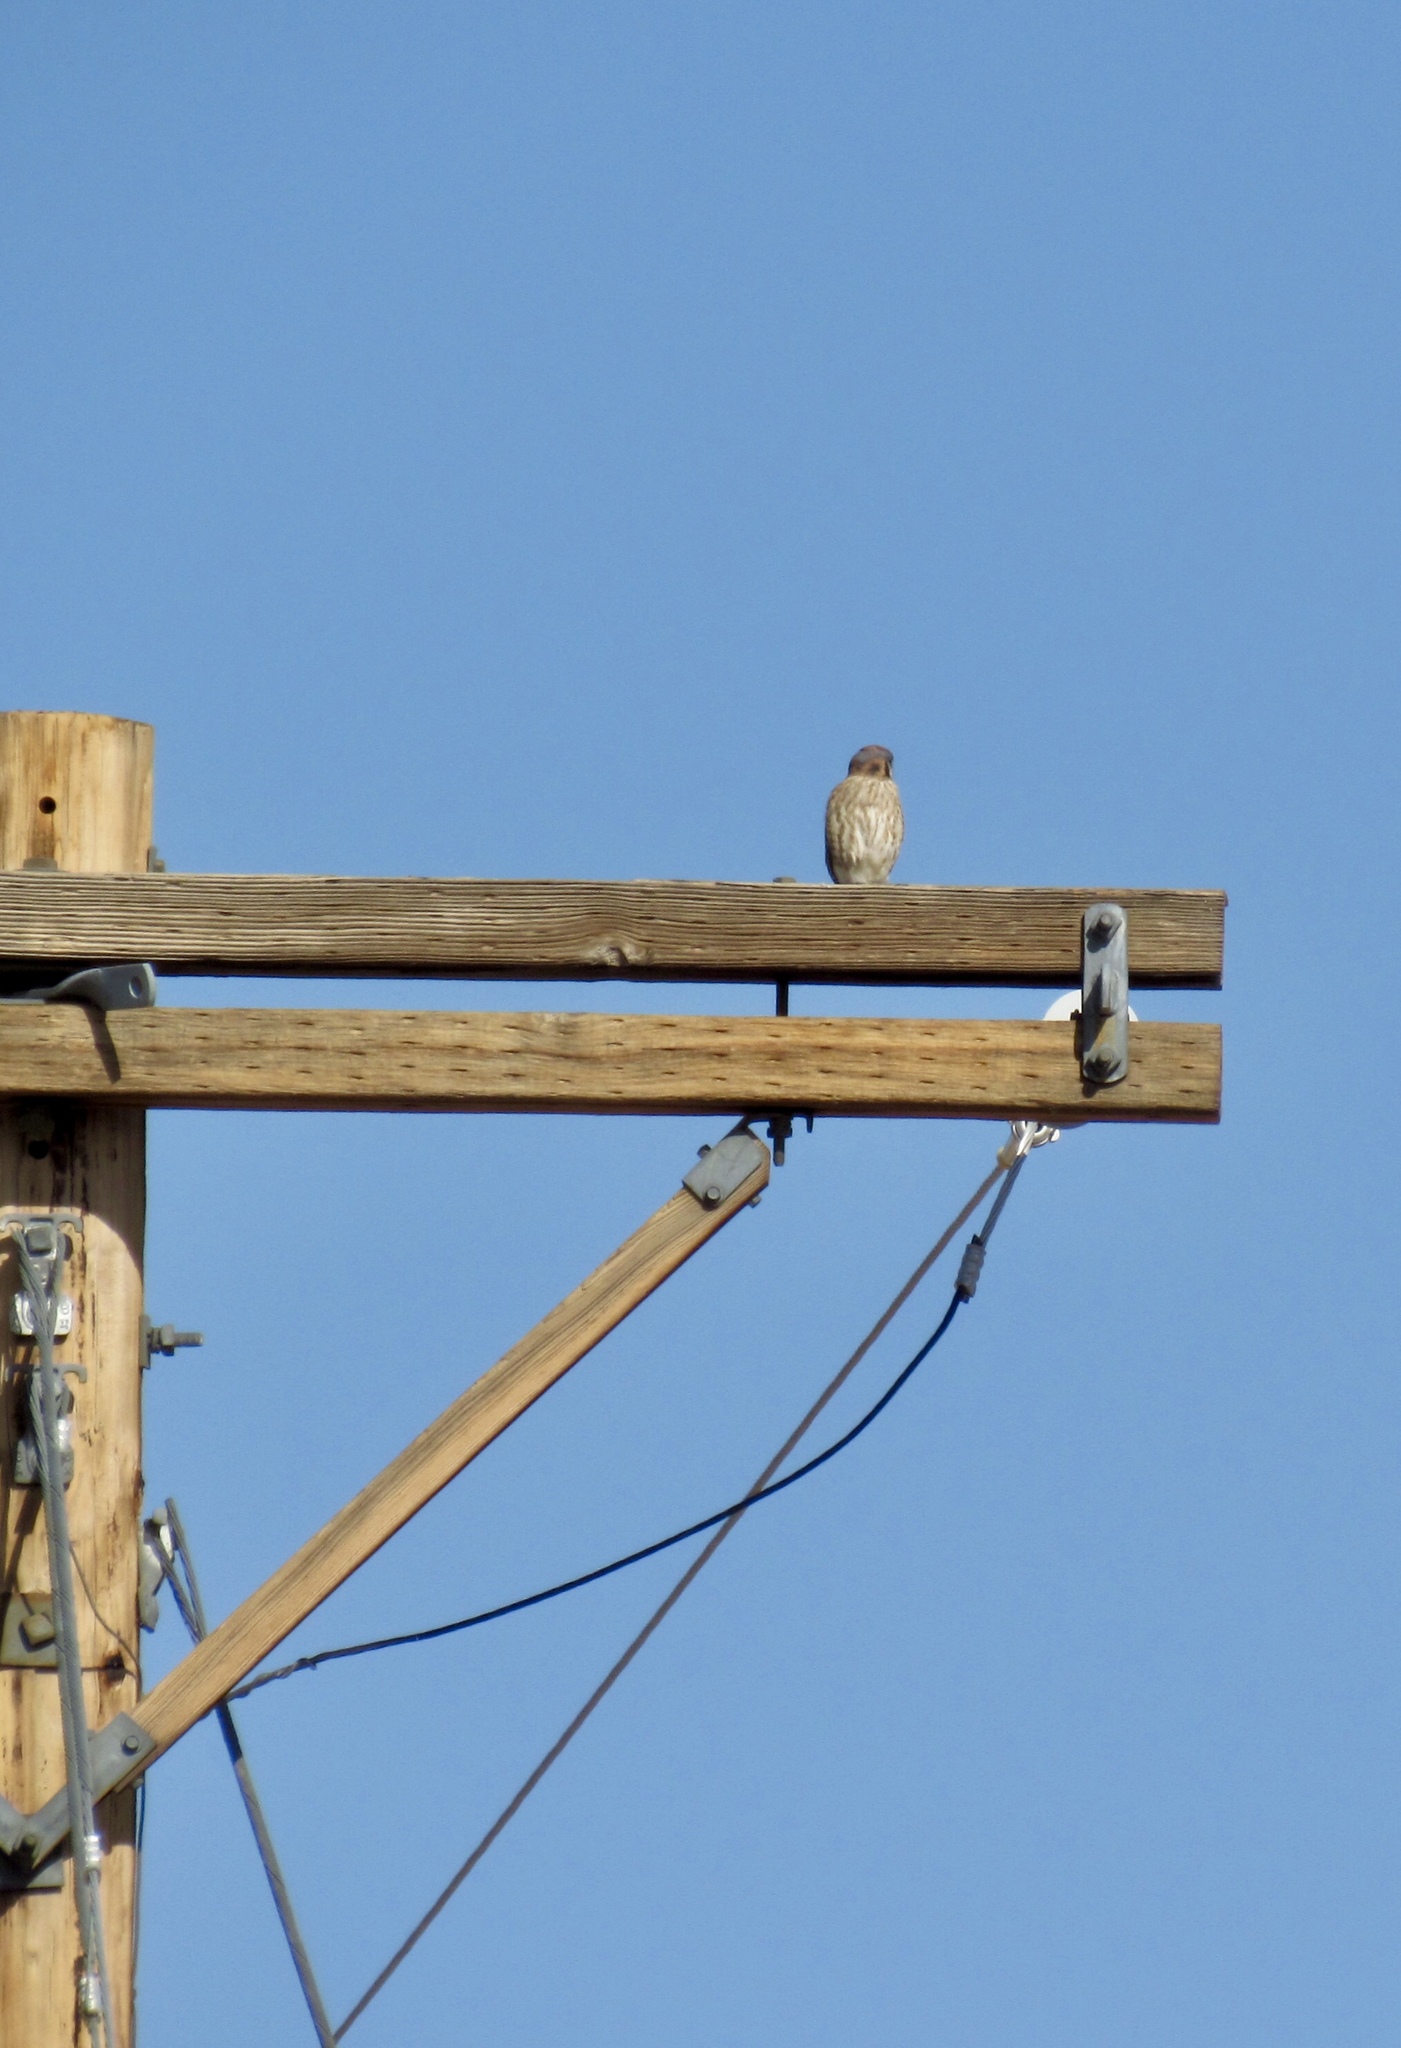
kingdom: Animalia
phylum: Chordata
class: Aves
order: Falconiformes
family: Falconidae
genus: Falco
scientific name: Falco sparverius
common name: American kestrel
